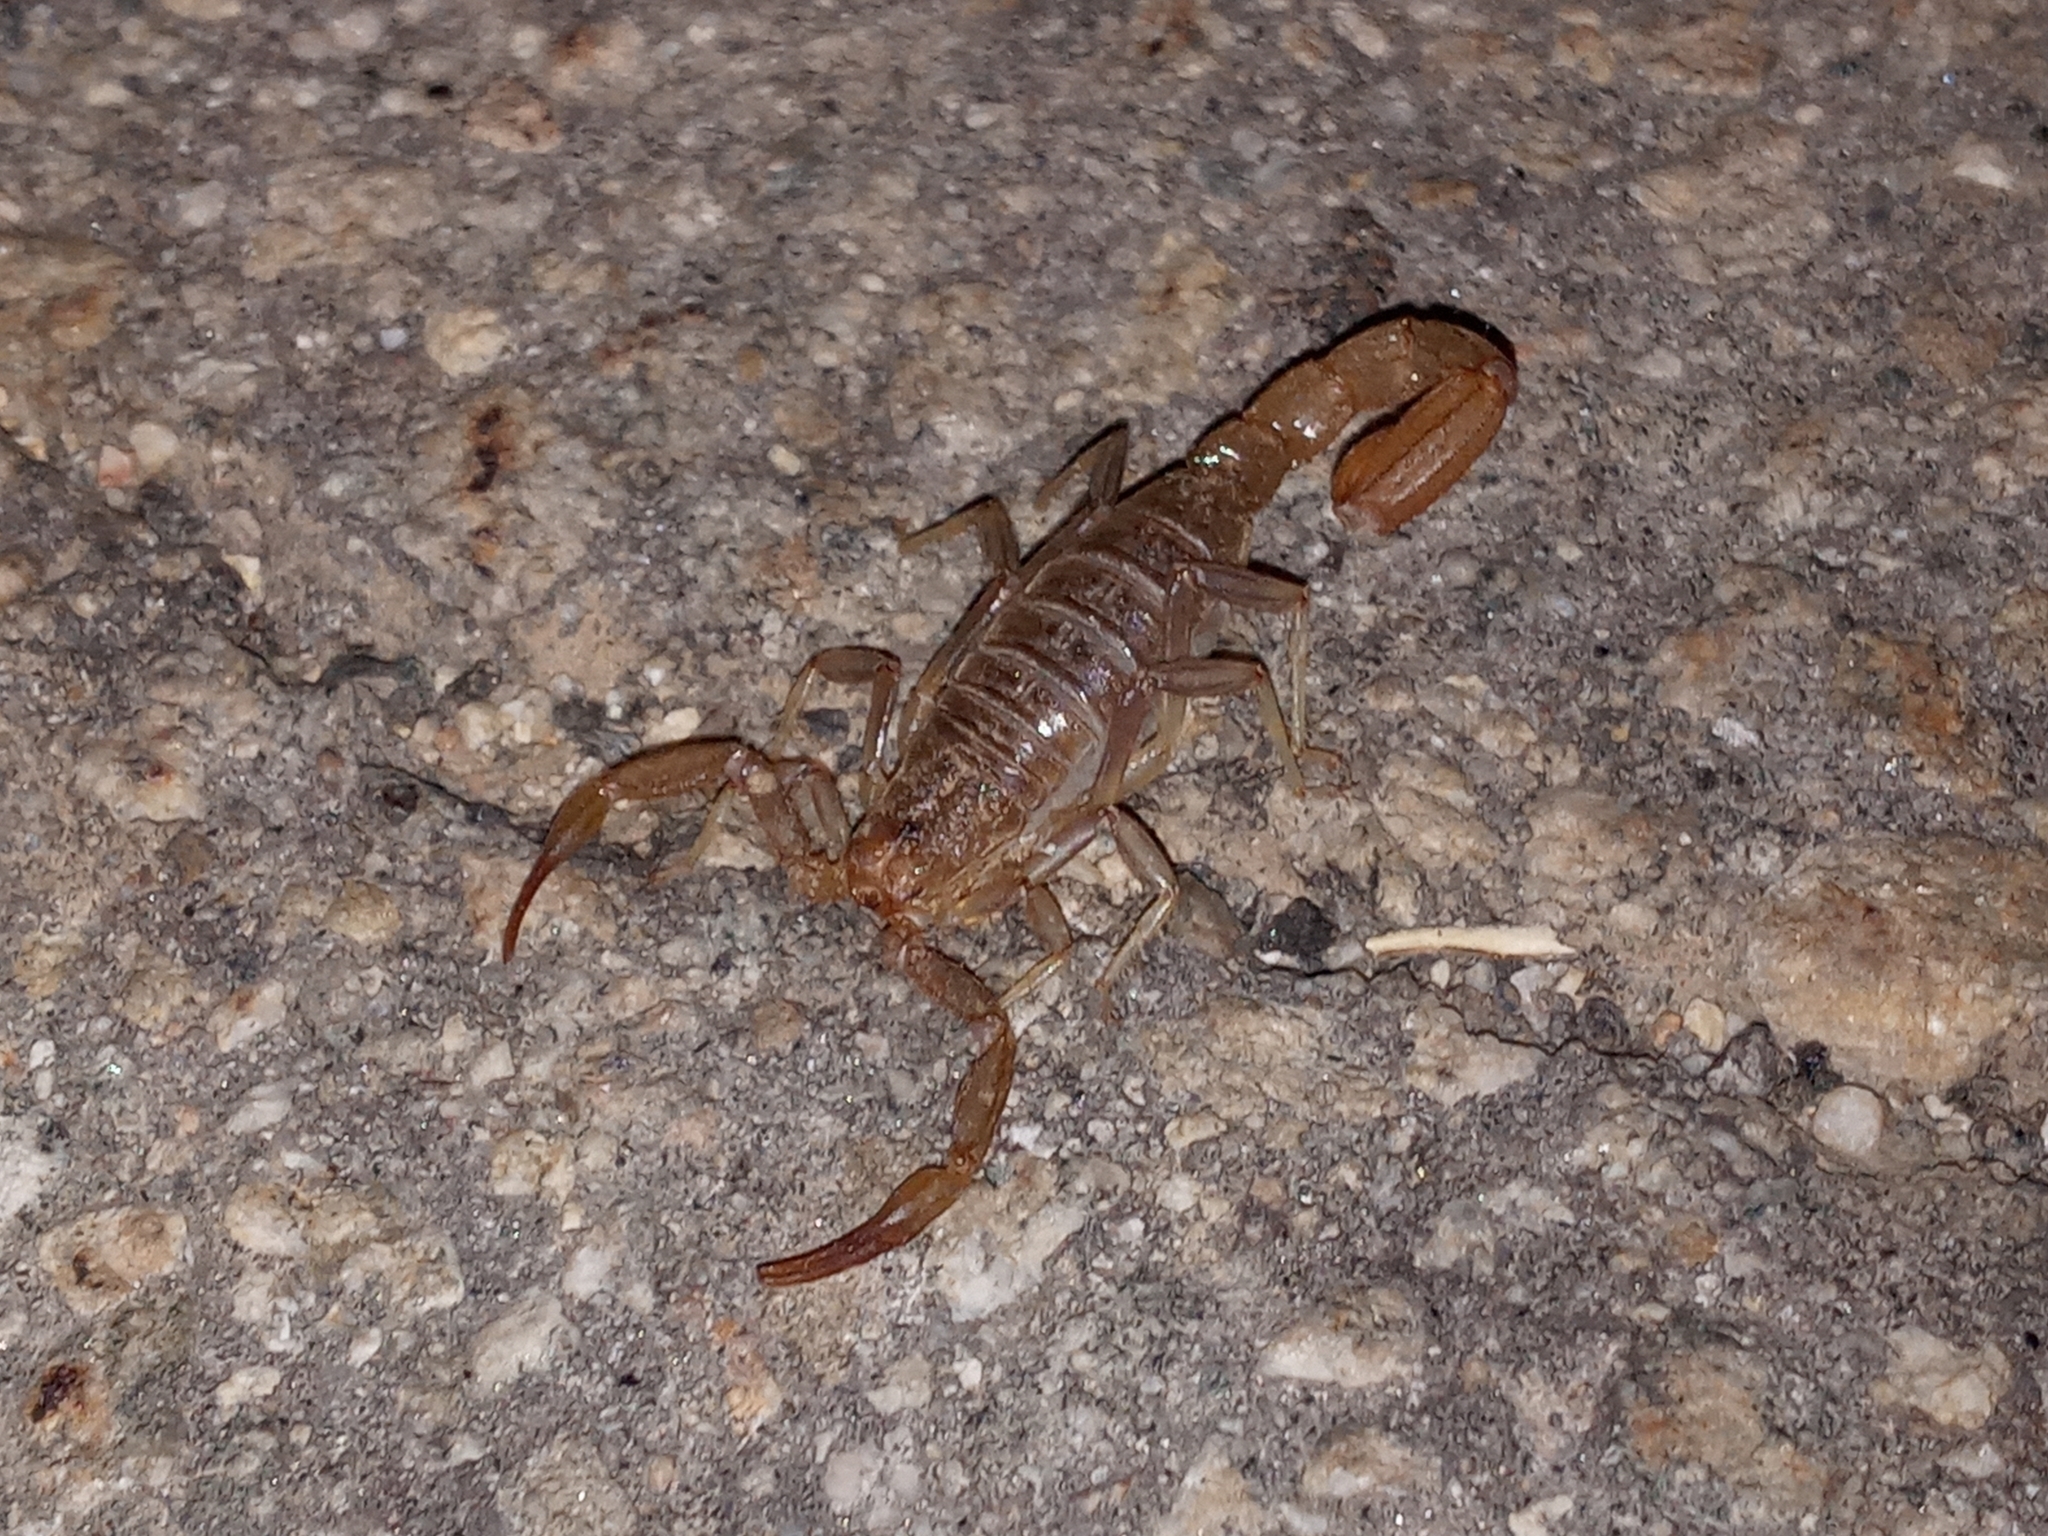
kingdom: Animalia
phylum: Arthropoda
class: Arachnida
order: Scorpiones
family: Vaejovidae
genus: Paravaejovis
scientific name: Paravaejovis puritanus
